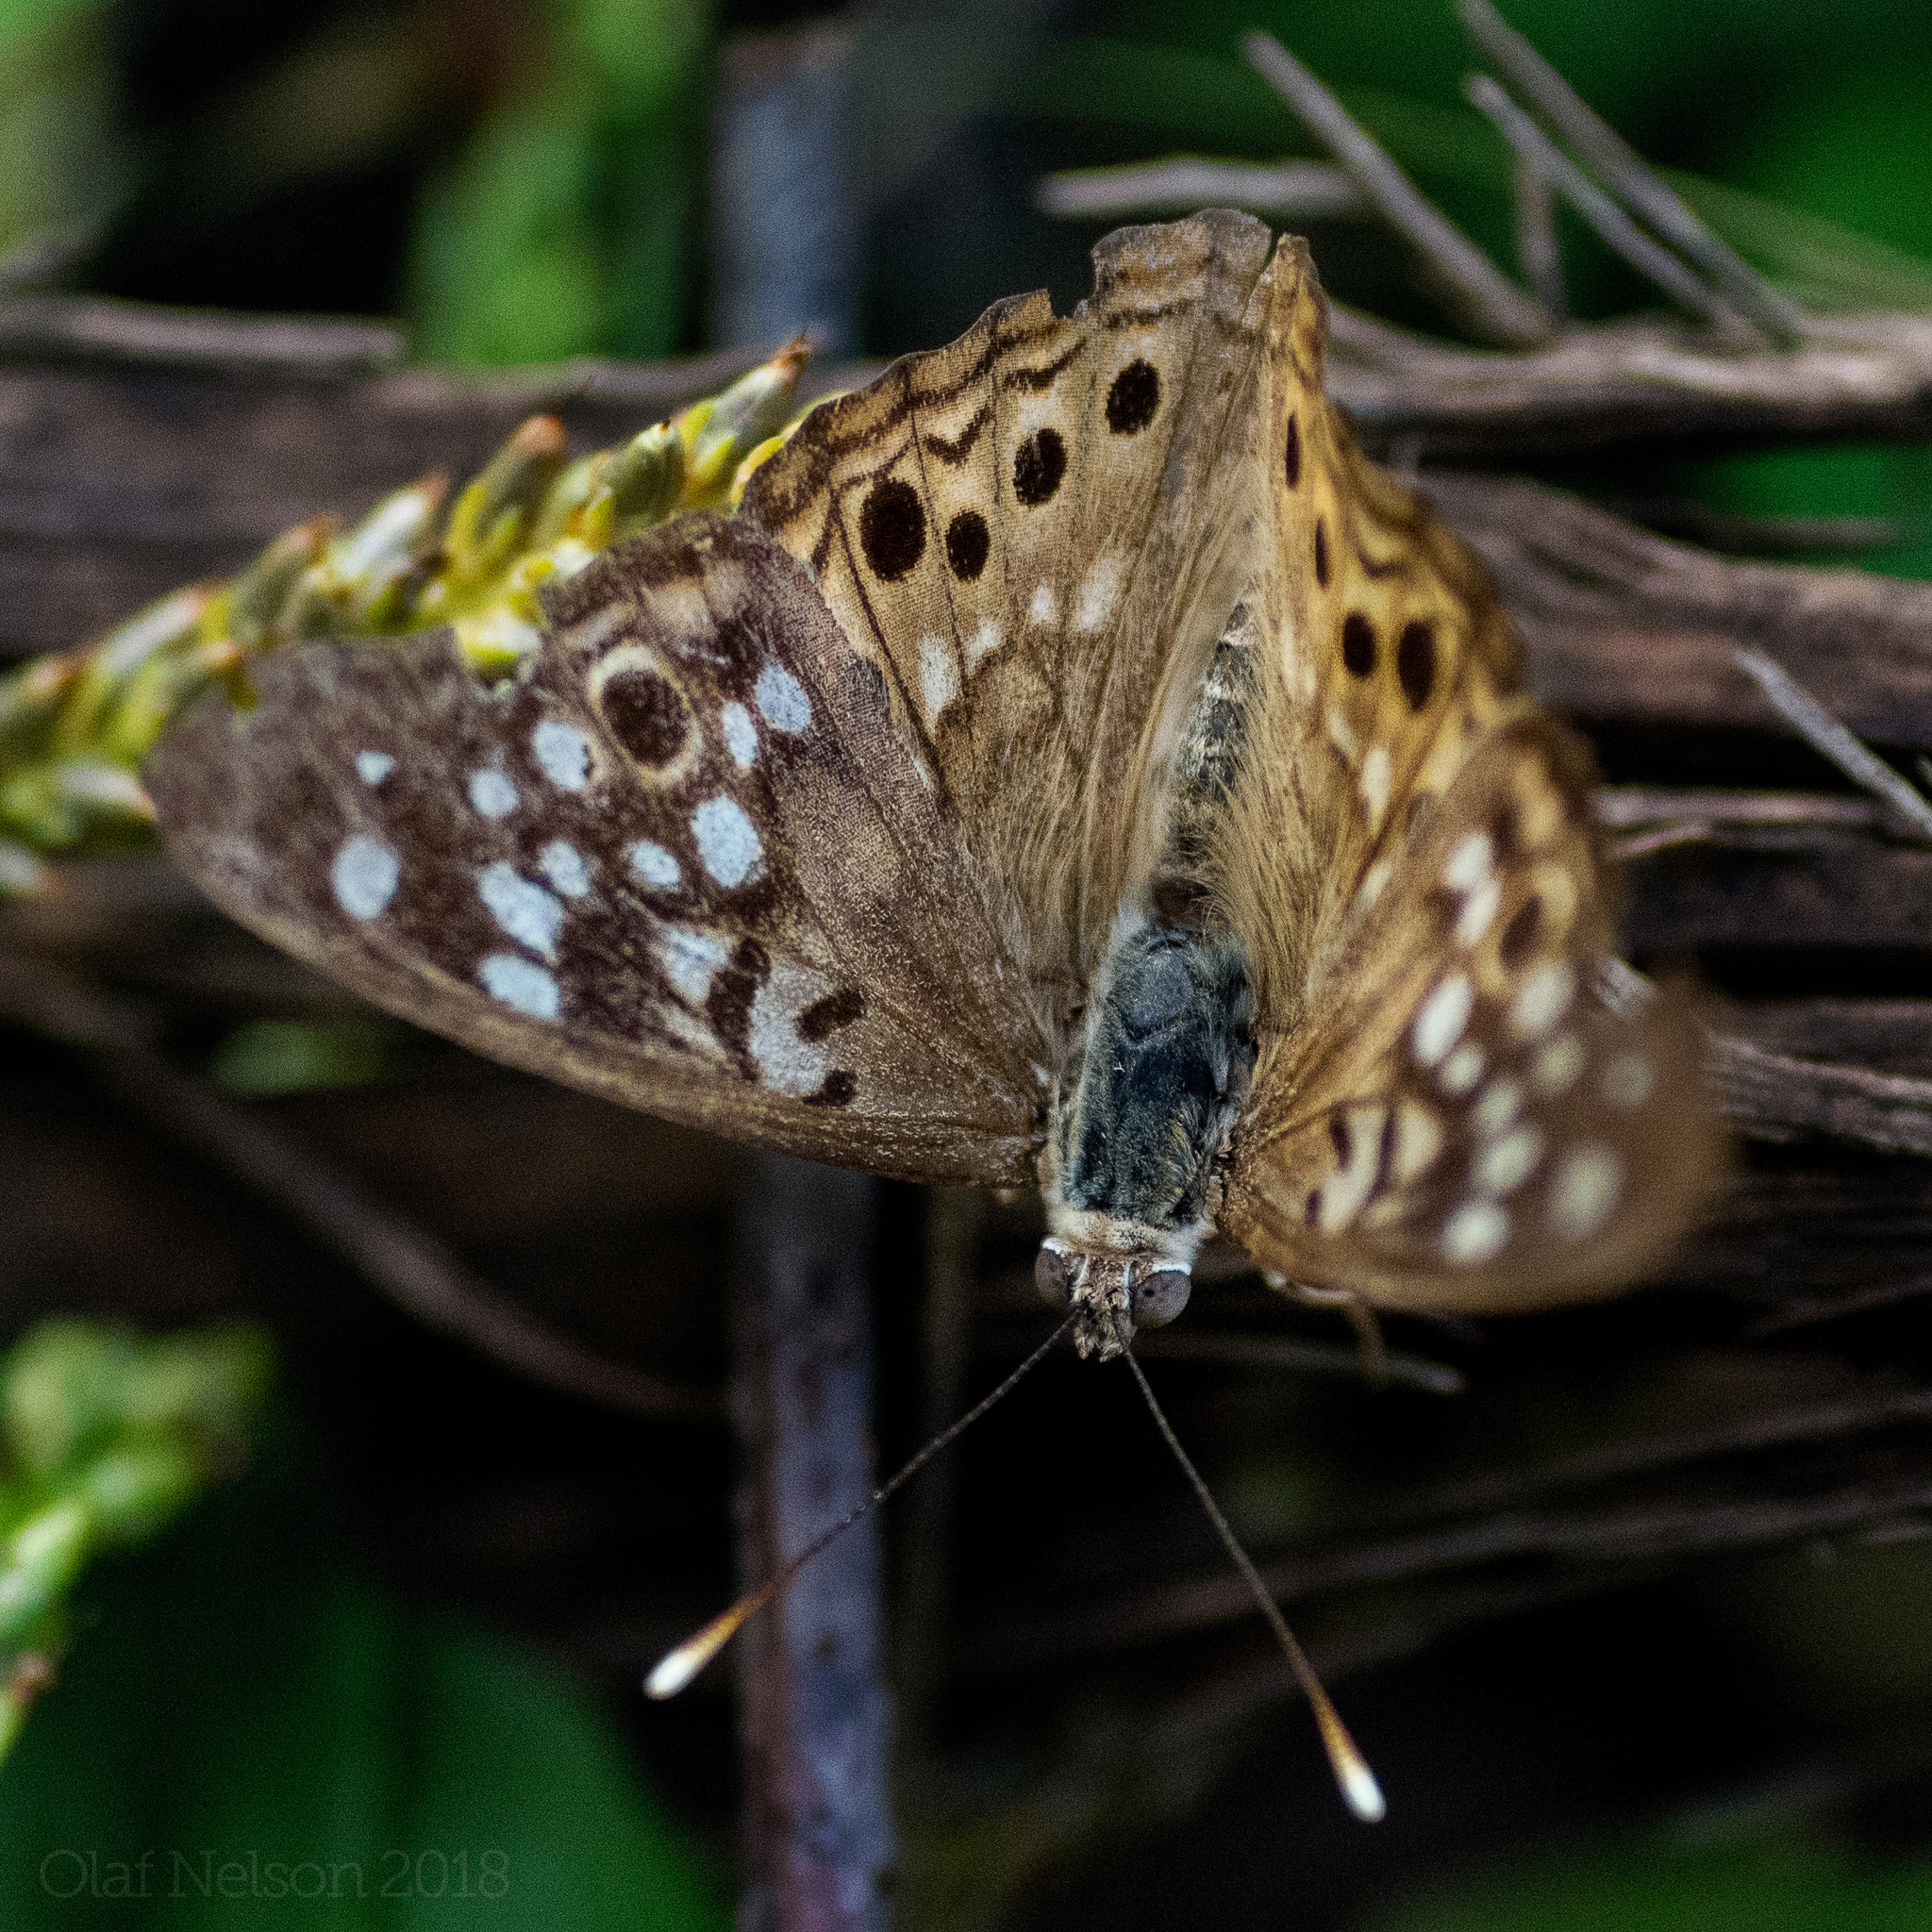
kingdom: Animalia
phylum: Arthropoda
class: Insecta
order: Lepidoptera
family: Nymphalidae
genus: Asterocampa
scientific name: Asterocampa celtis
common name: Hackberry emperor
